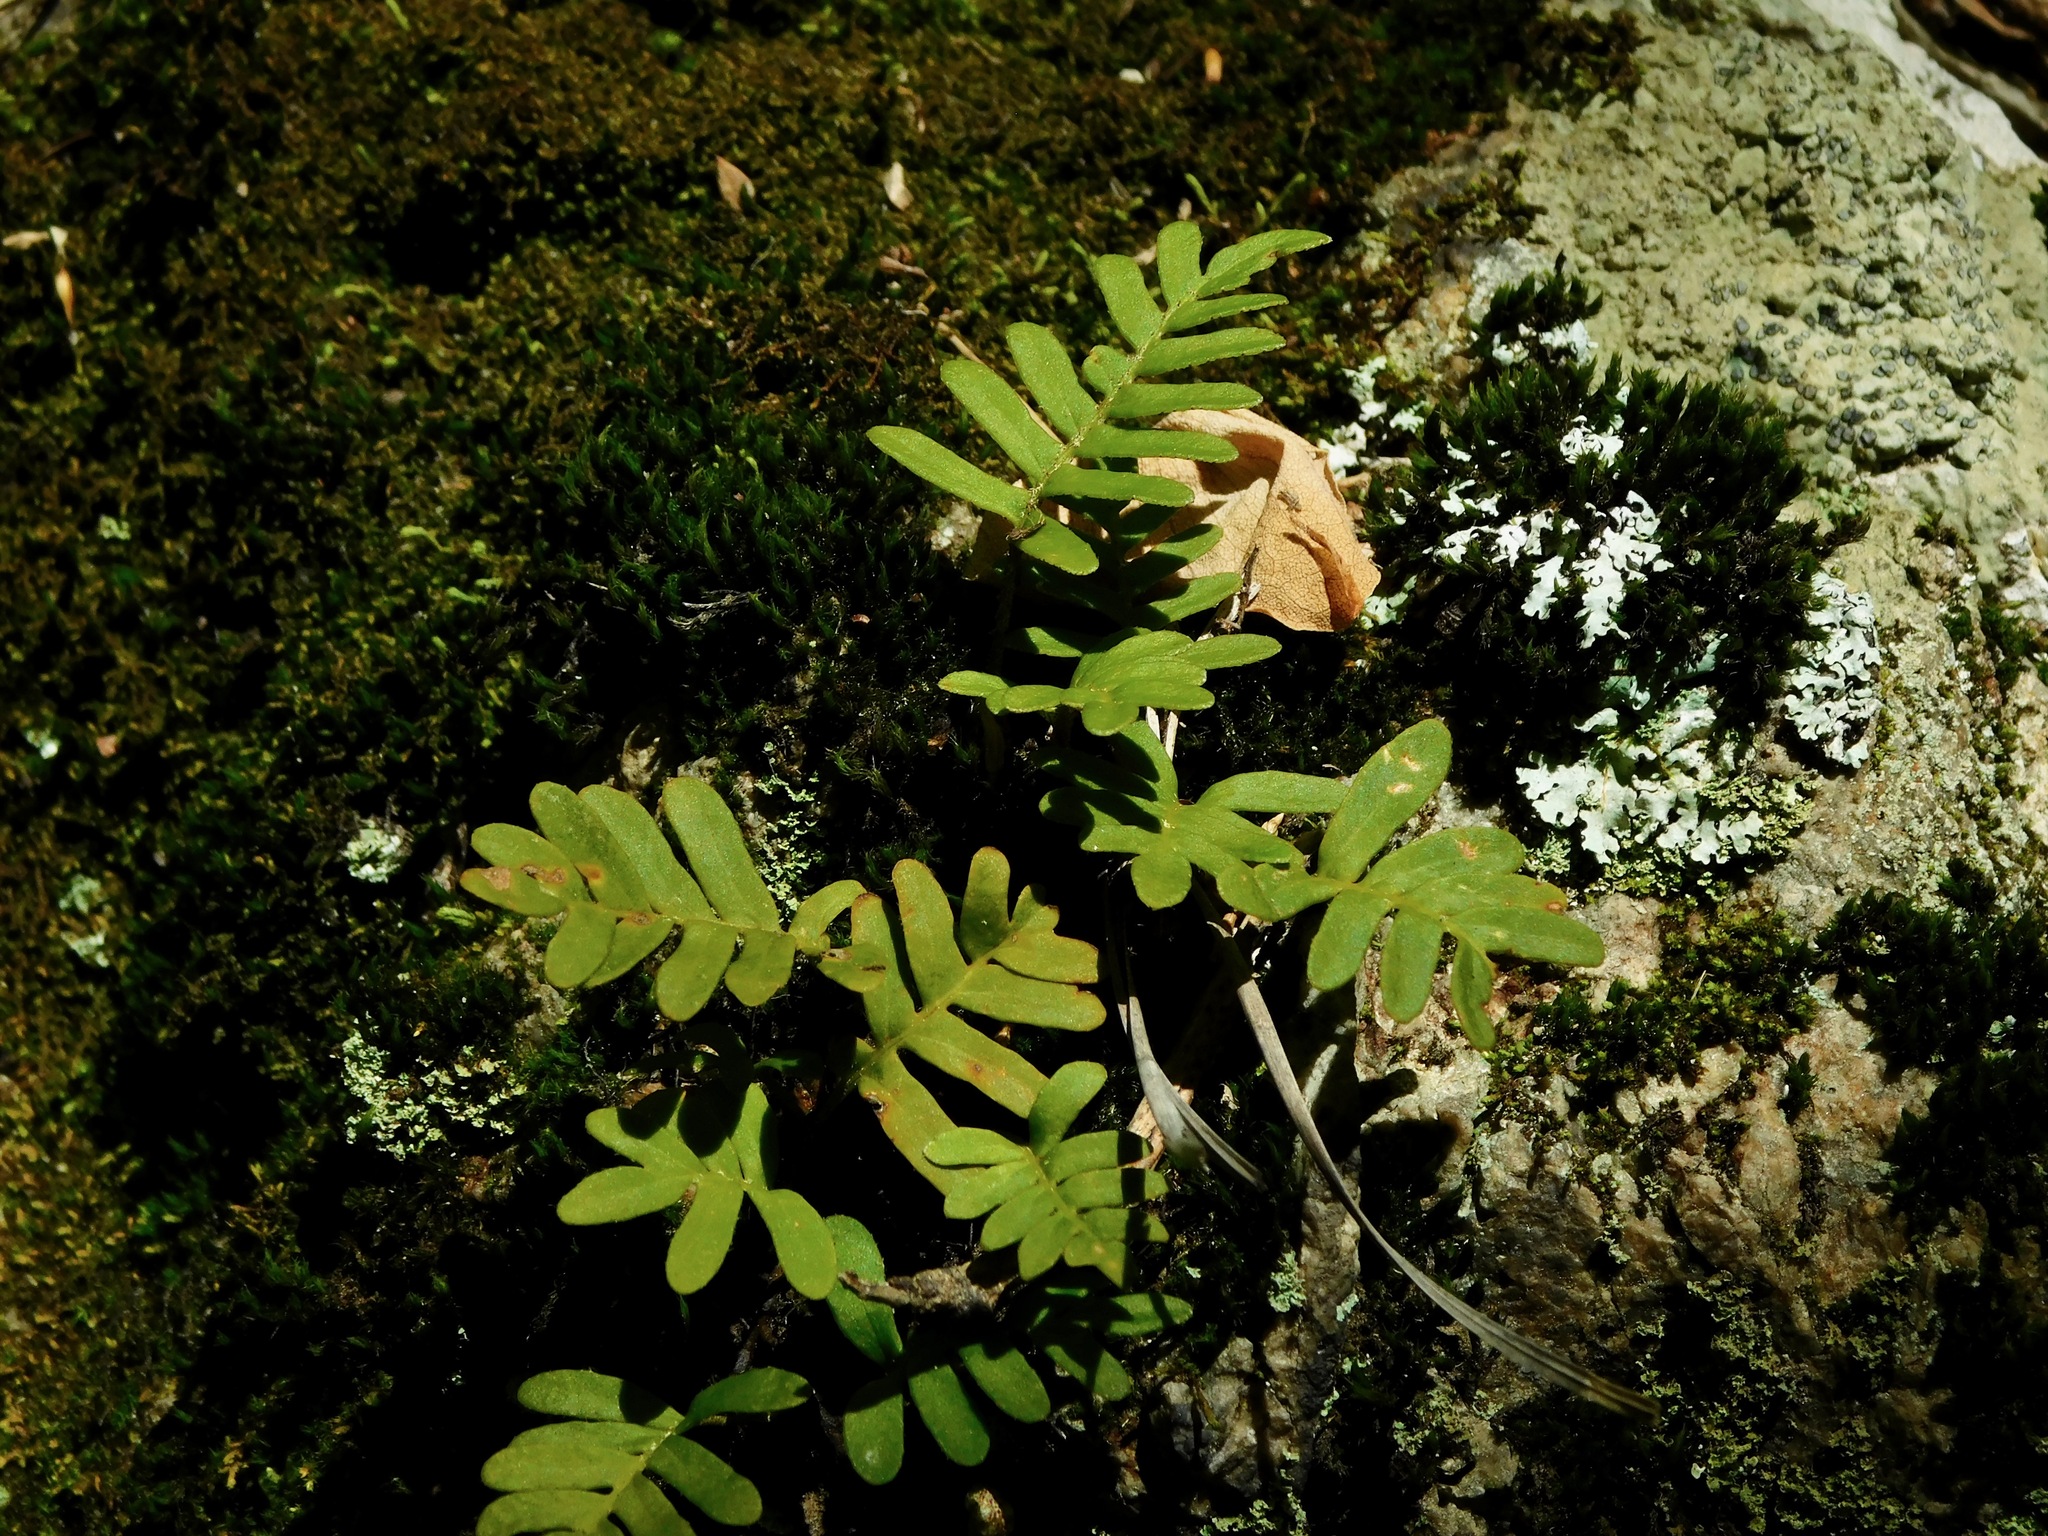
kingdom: Plantae
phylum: Tracheophyta
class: Polypodiopsida
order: Polypodiales
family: Polypodiaceae
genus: Pleopeltis
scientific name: Pleopeltis michauxiana
